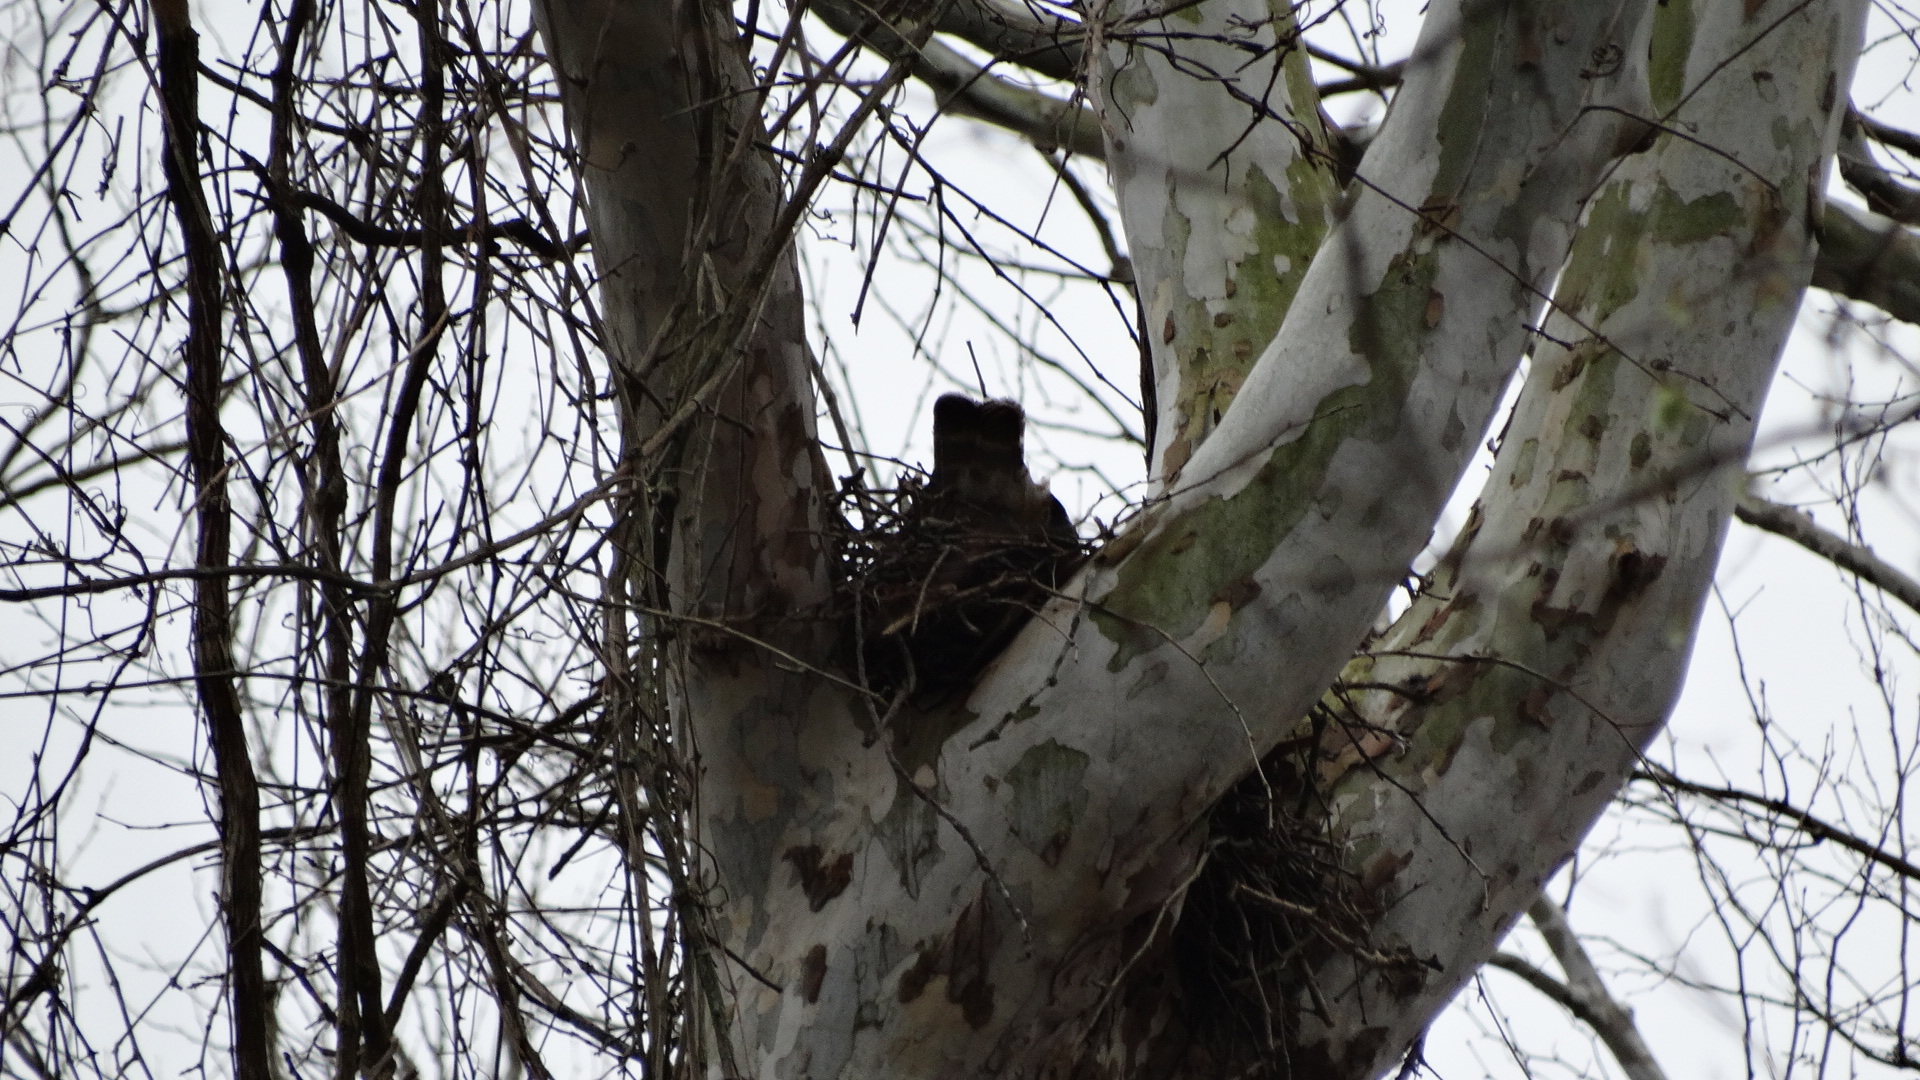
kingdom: Animalia
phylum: Chordata
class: Aves
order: Accipitriformes
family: Accipitridae
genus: Buteo
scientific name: Buteo lineatus
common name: Red-shouldered hawk
